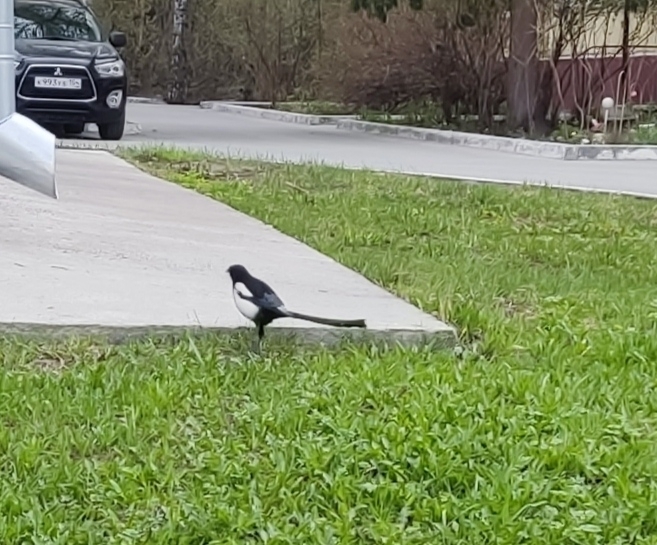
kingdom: Animalia
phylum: Chordata
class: Aves
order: Passeriformes
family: Corvidae
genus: Pica
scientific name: Pica pica
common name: Eurasian magpie
